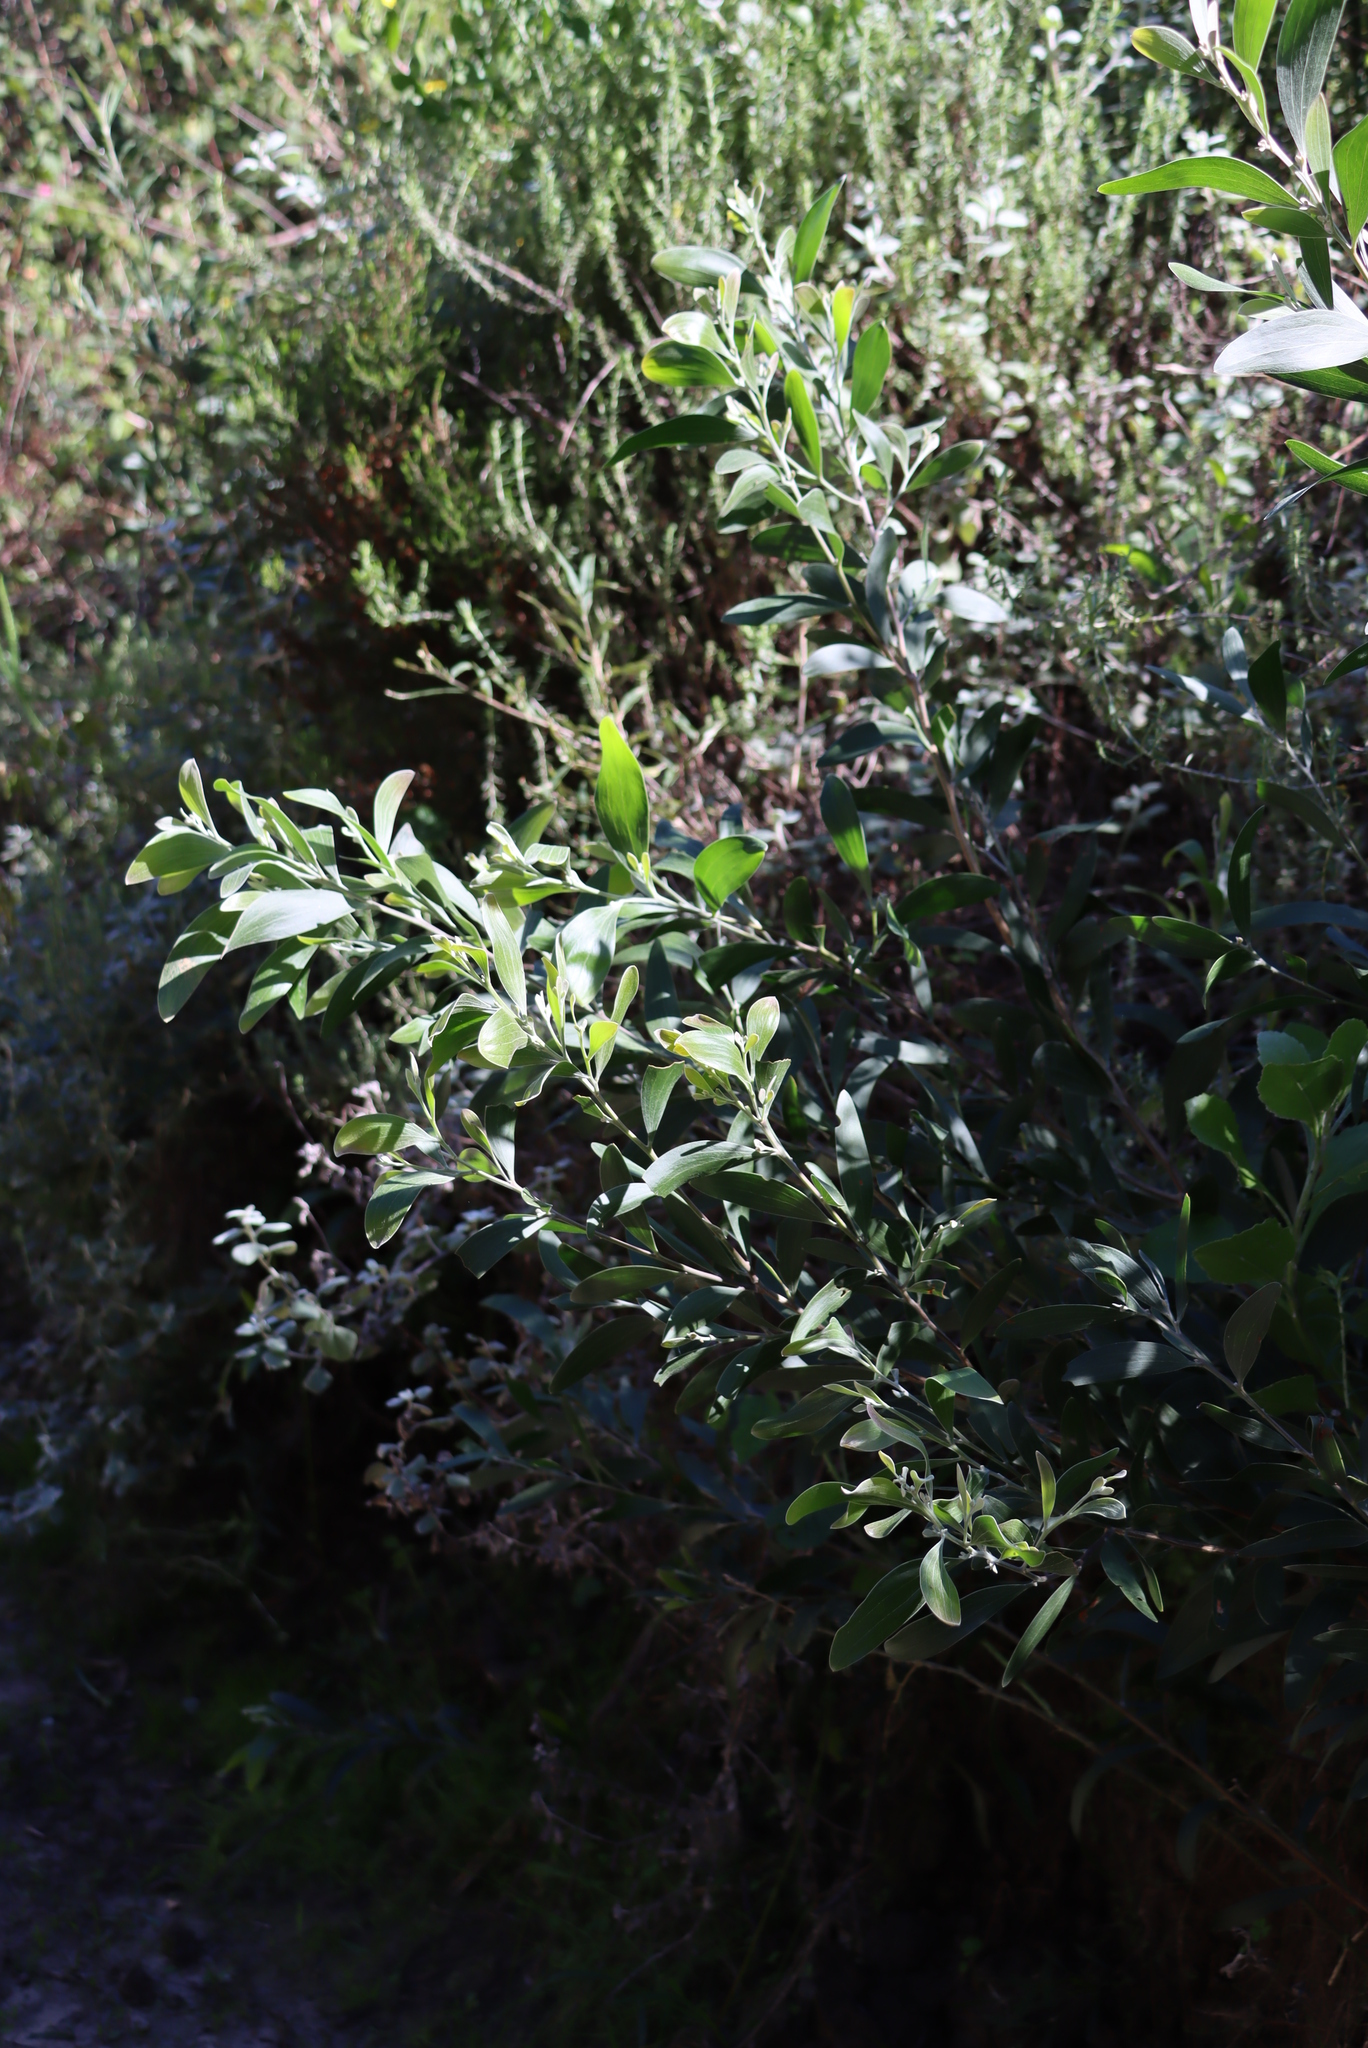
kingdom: Plantae
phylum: Tracheophyta
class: Magnoliopsida
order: Fabales
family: Fabaceae
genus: Acacia
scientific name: Acacia melanoxylon
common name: Blackwood
